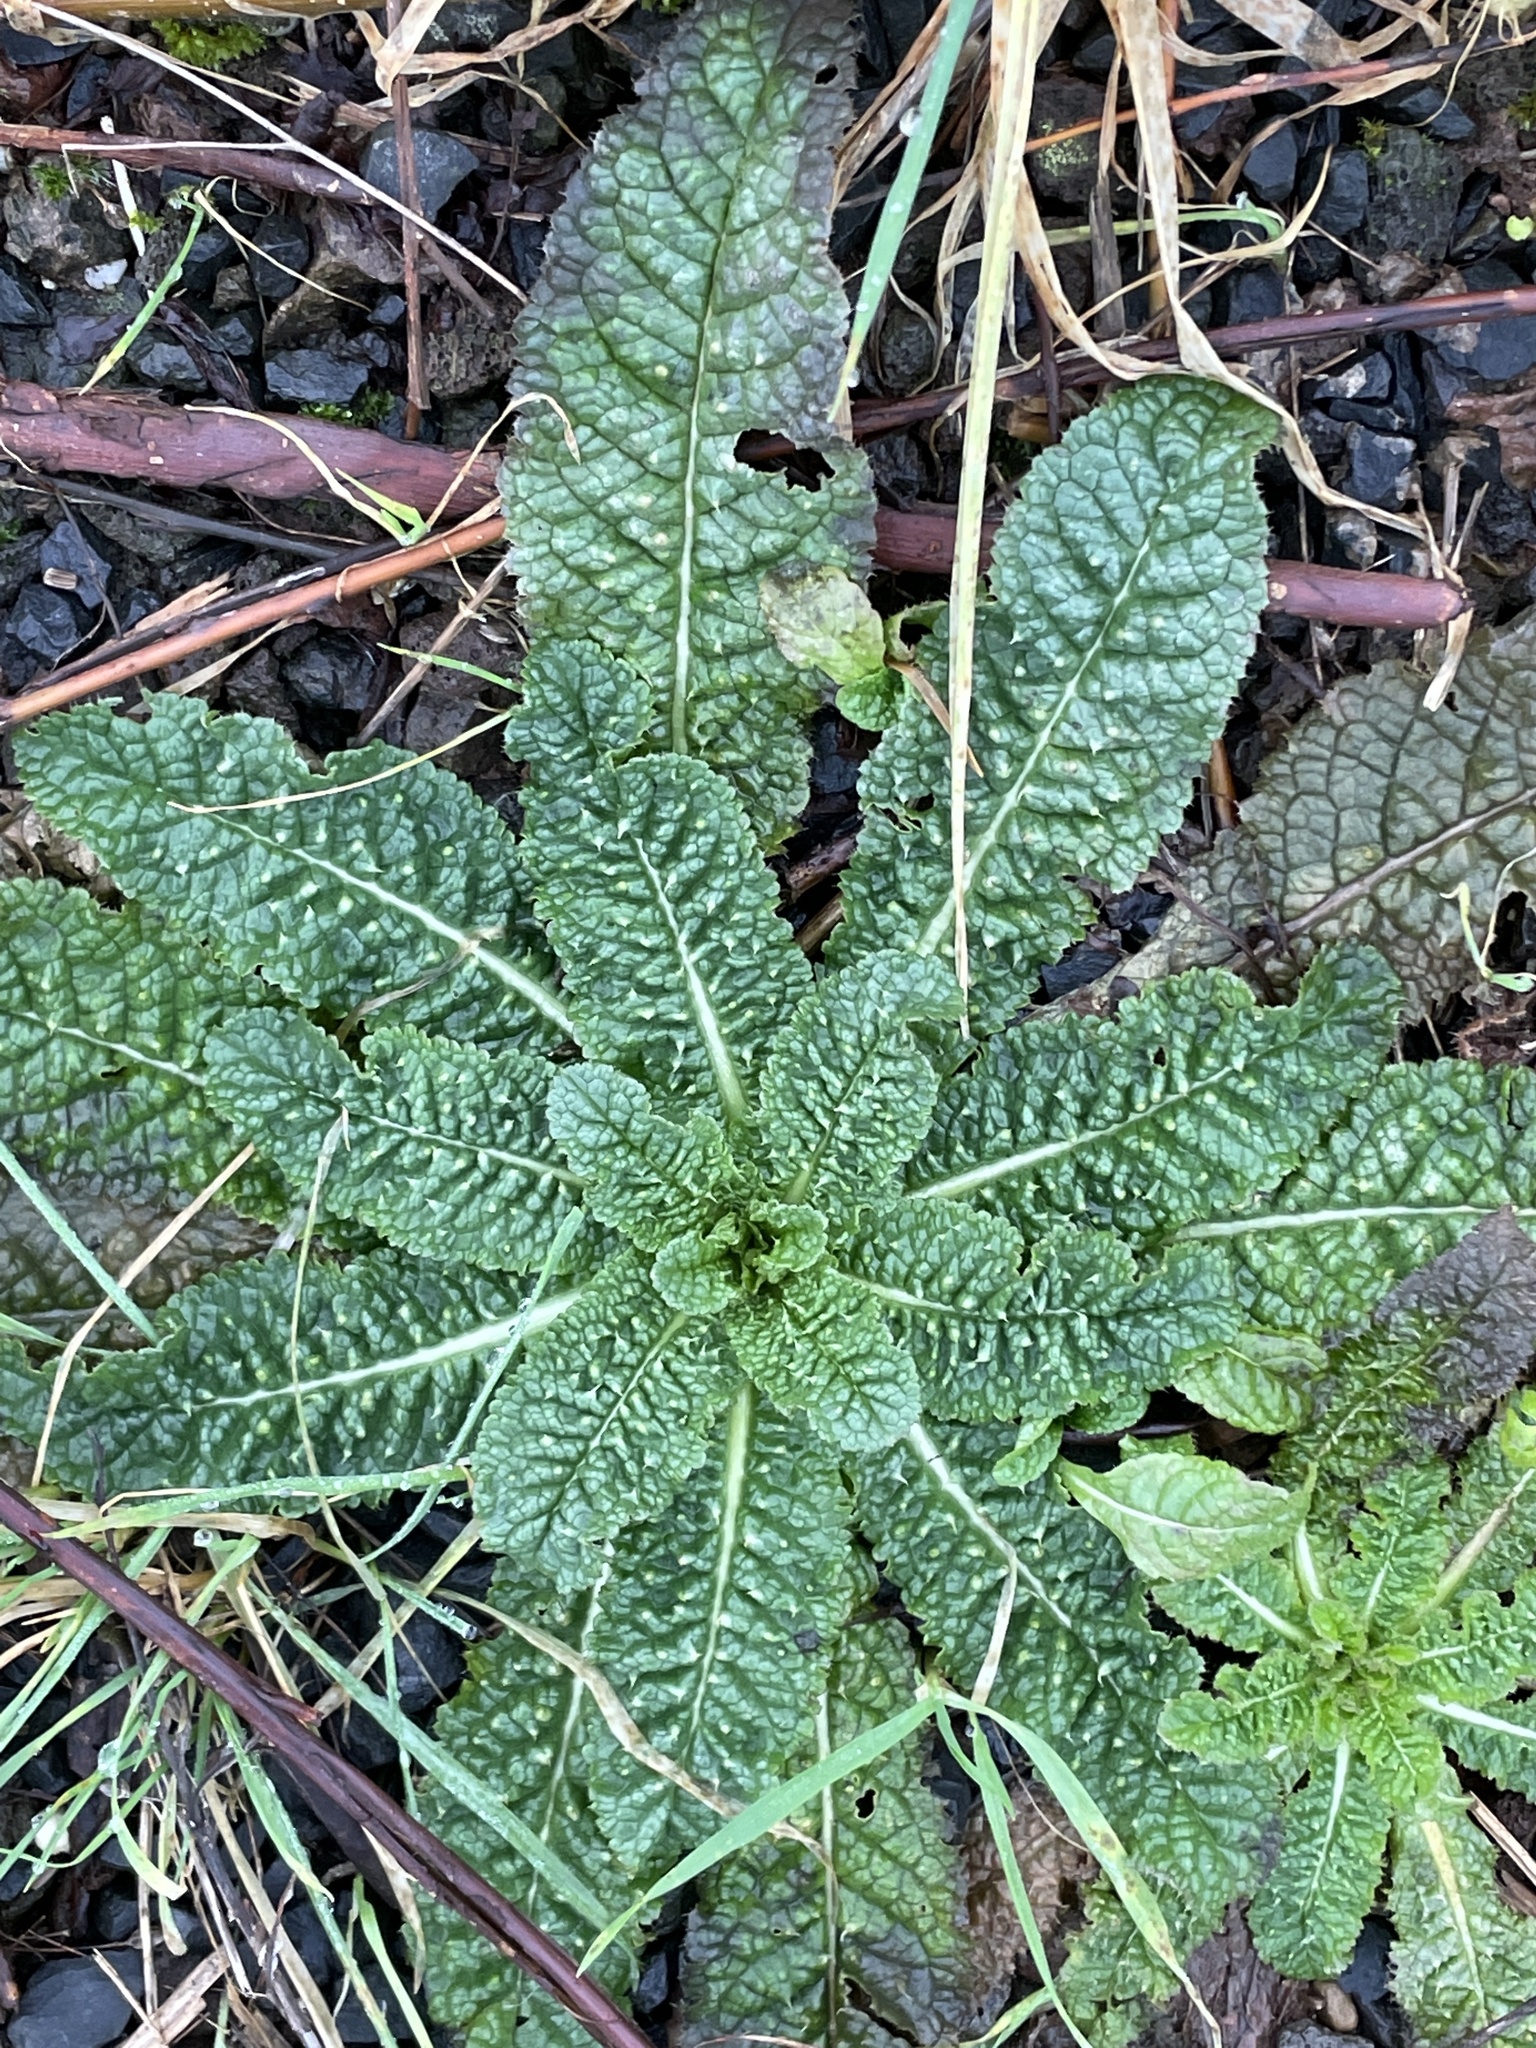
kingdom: Plantae
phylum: Tracheophyta
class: Magnoliopsida
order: Dipsacales
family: Caprifoliaceae
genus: Dipsacus
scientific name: Dipsacus fullonum
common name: Teasel
